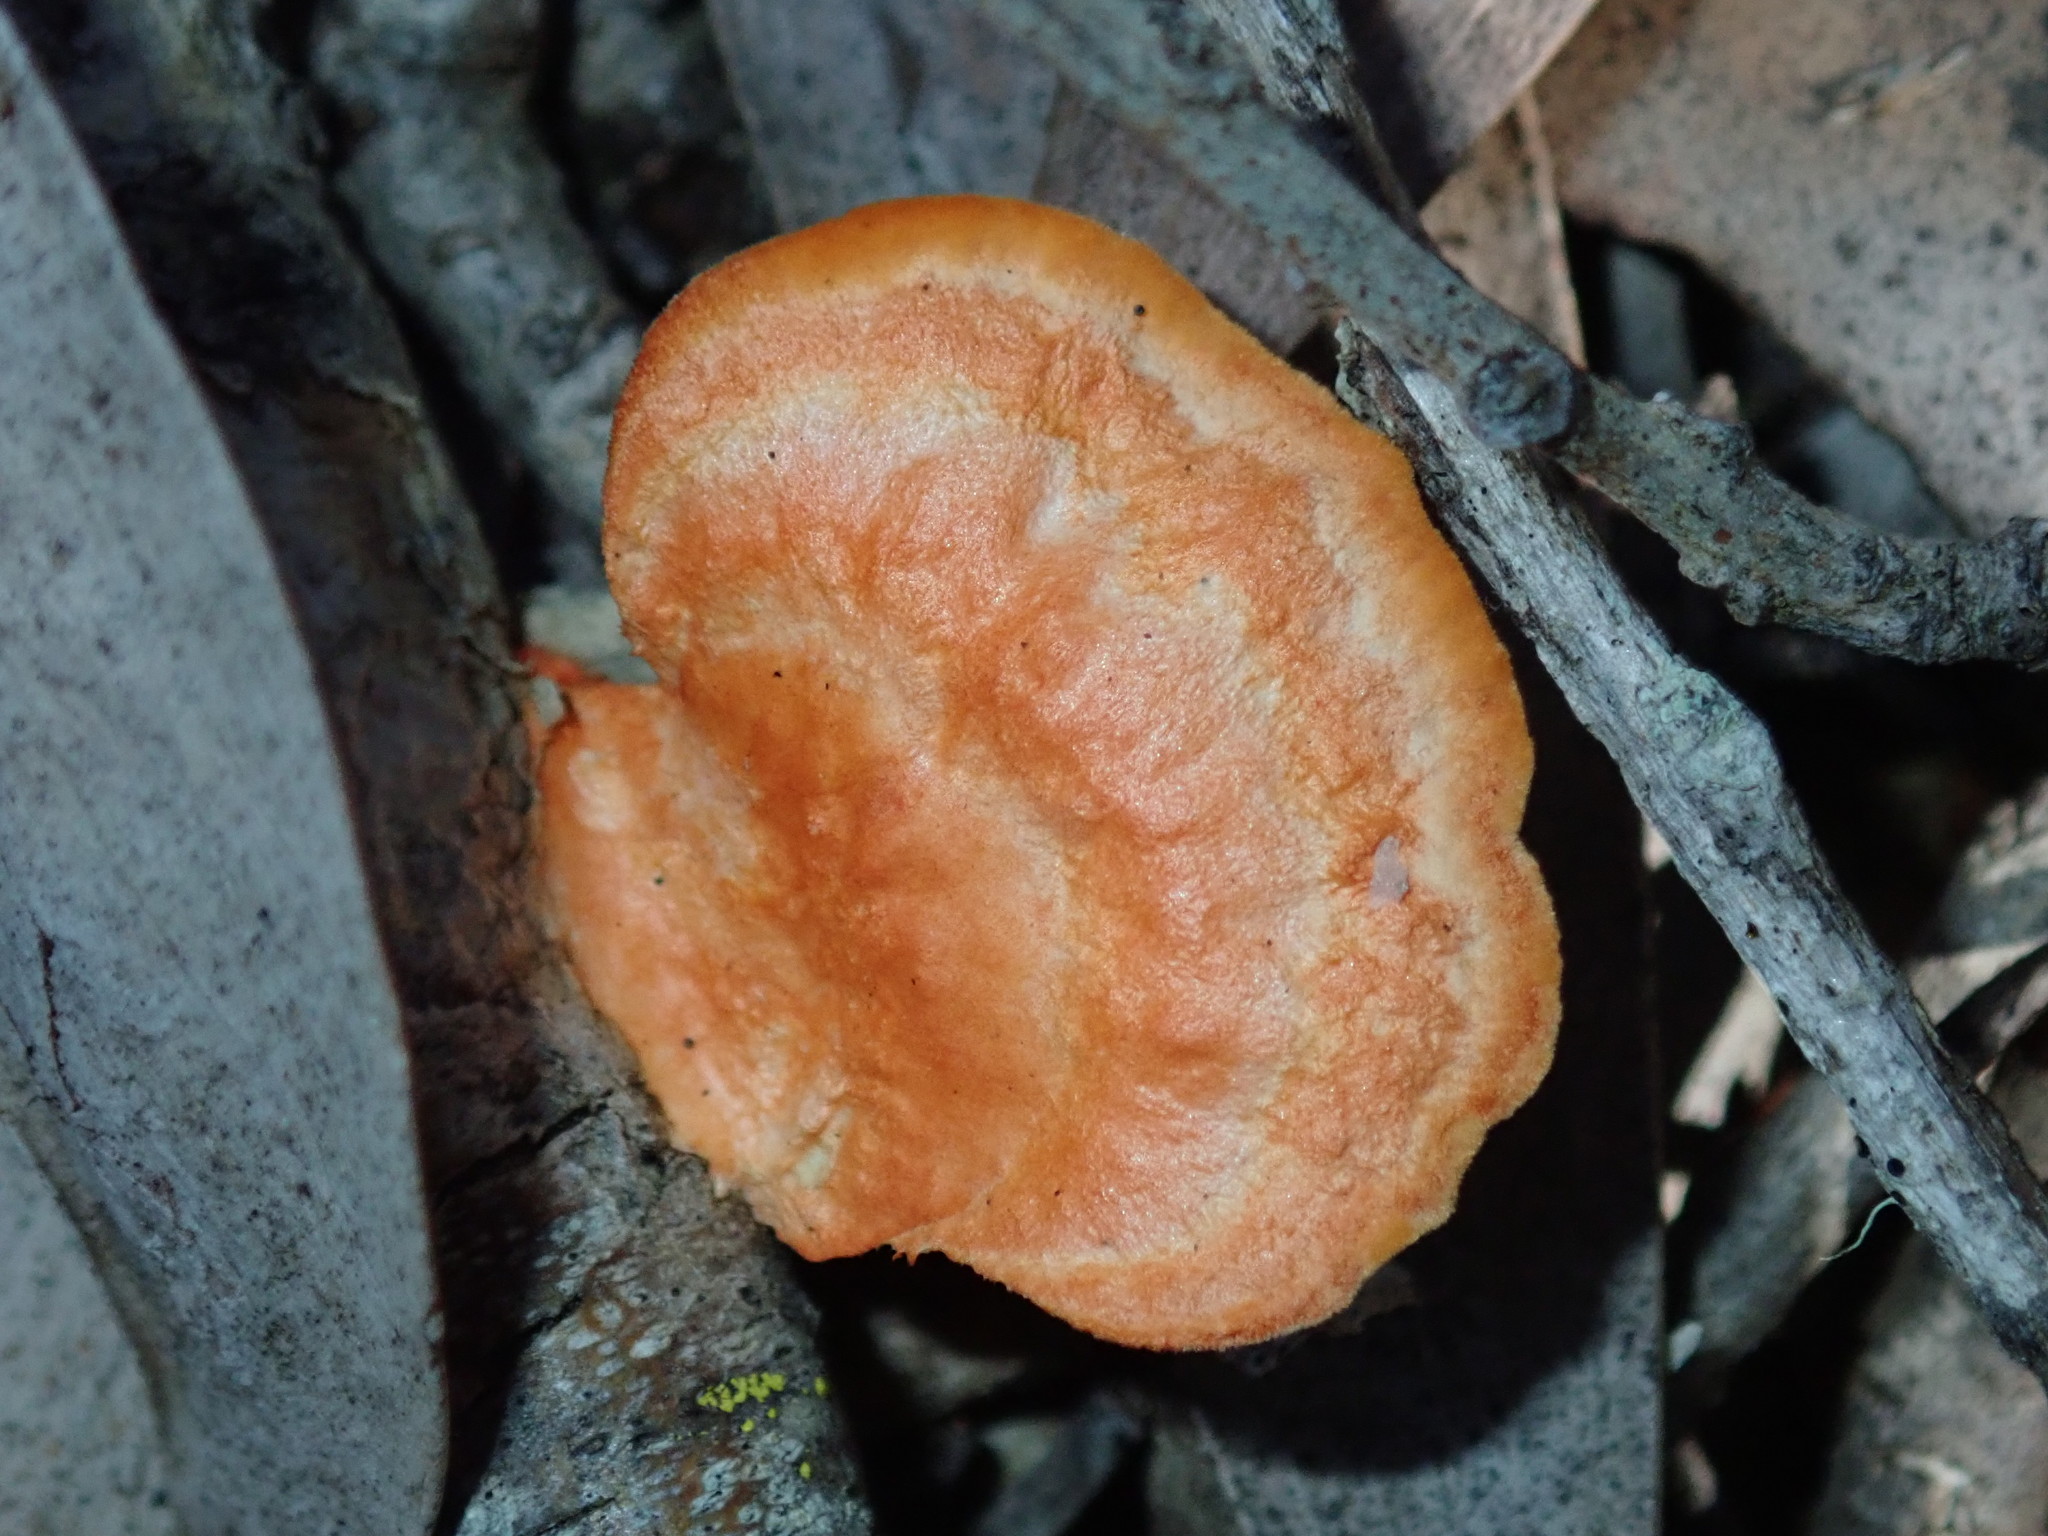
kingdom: Fungi
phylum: Basidiomycota
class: Agaricomycetes
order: Polyporales
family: Polyporaceae
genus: Trametes
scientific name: Trametes coccinea
